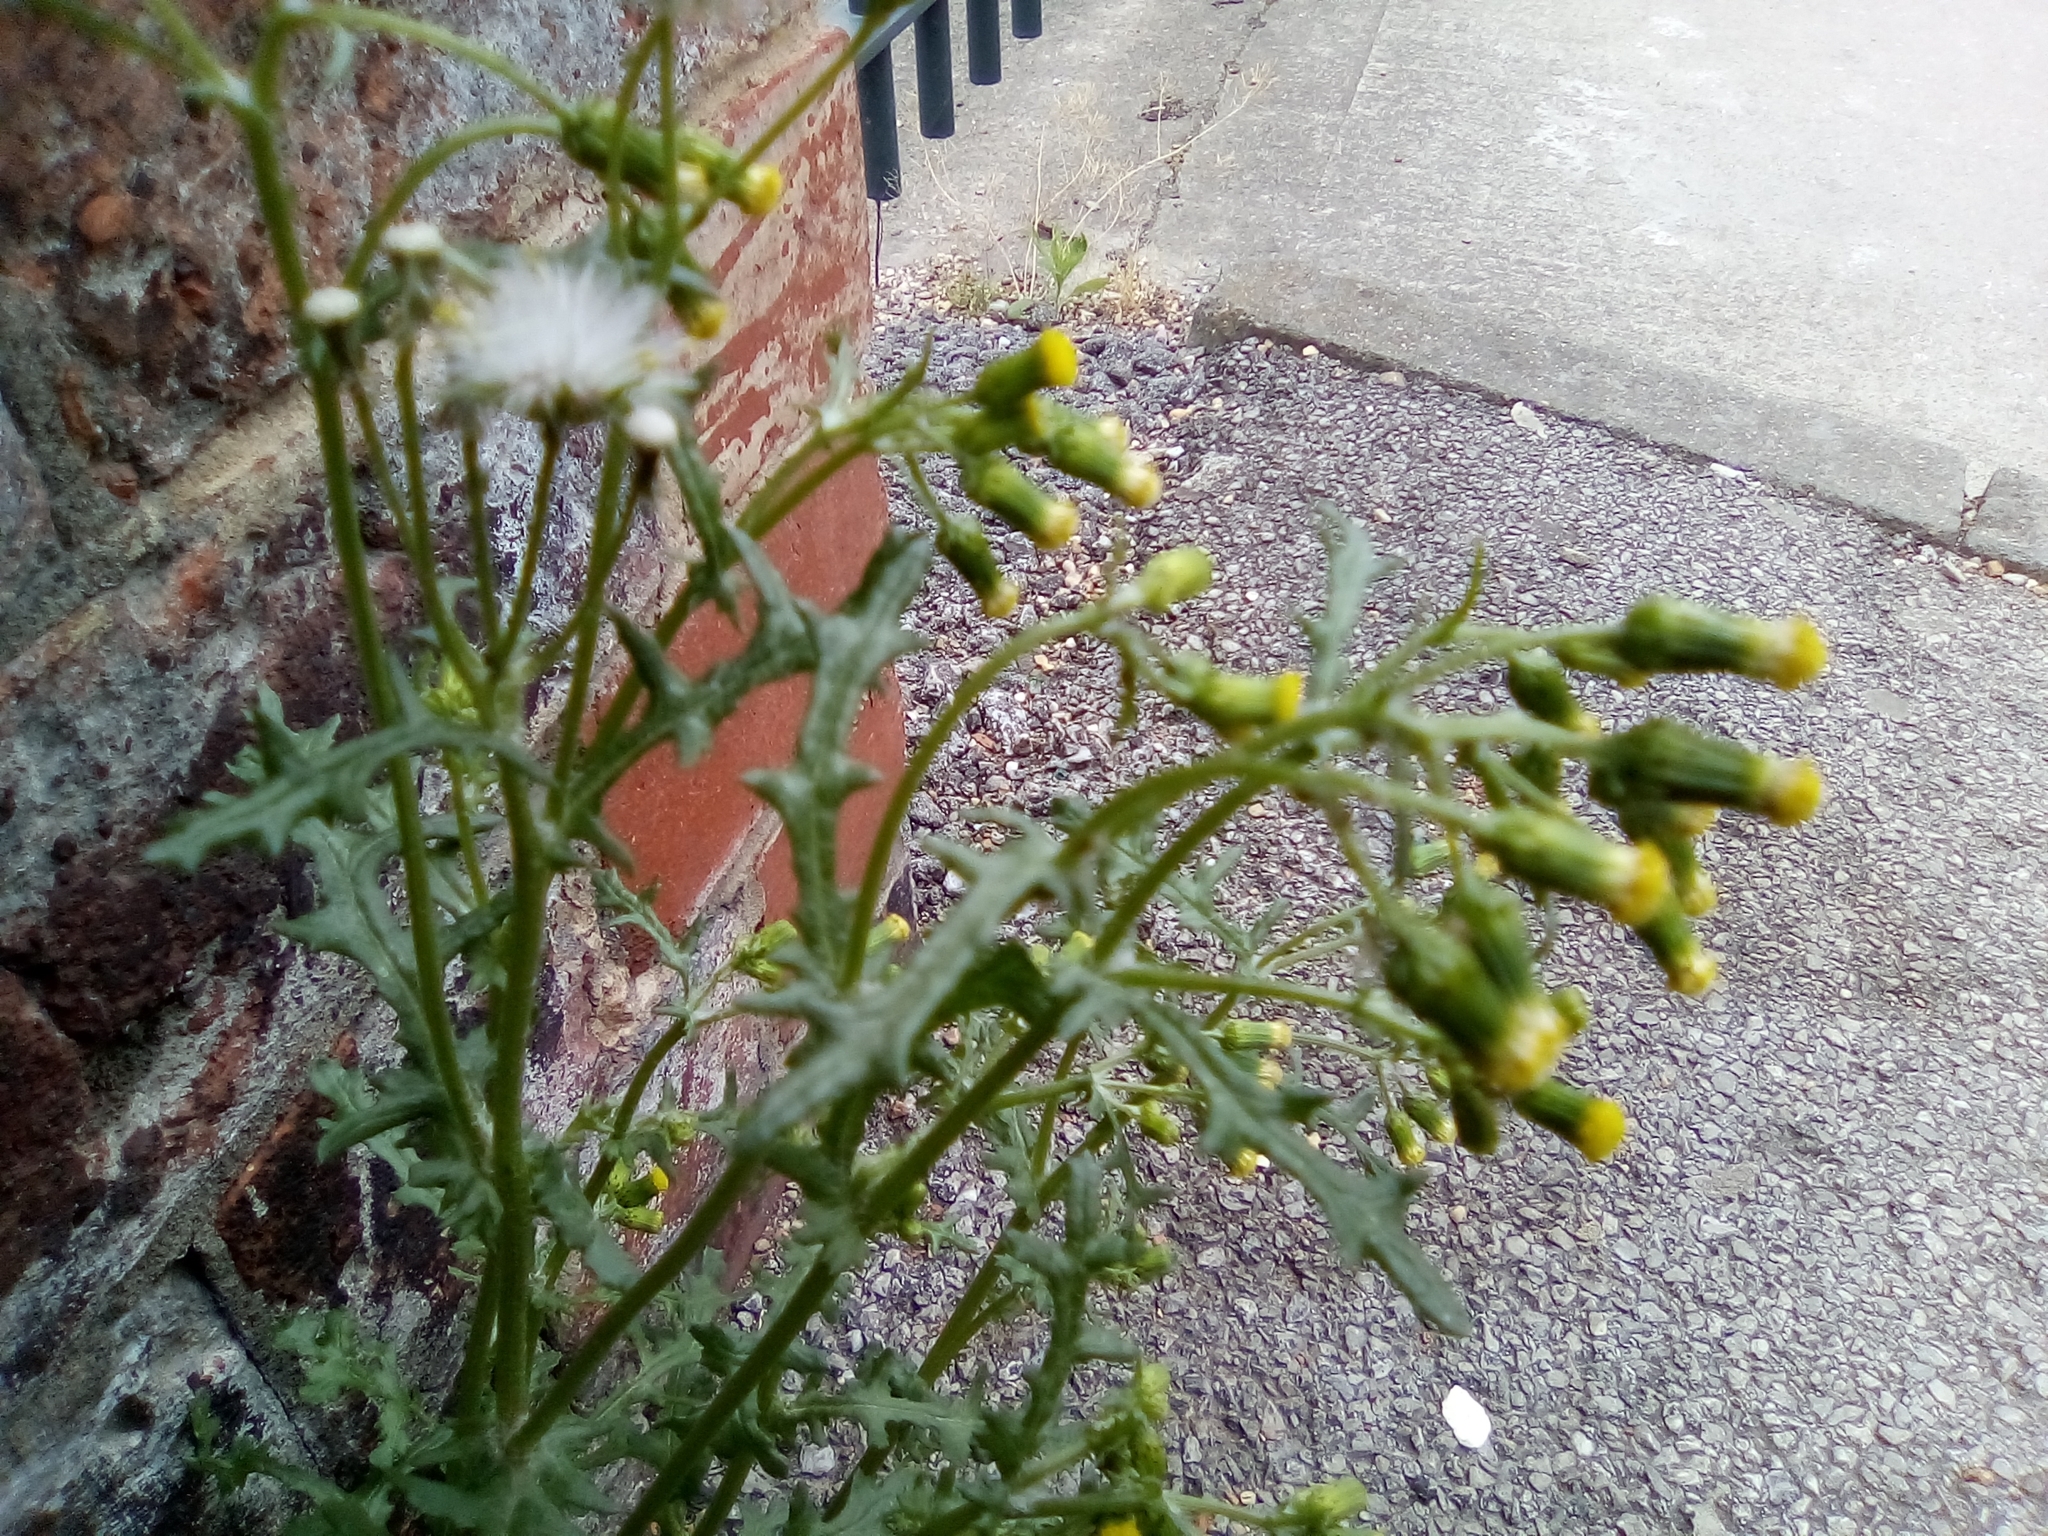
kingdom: Plantae
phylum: Tracheophyta
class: Magnoliopsida
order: Asterales
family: Asteraceae
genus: Senecio
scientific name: Senecio vulgaris
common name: Old-man-in-the-spring
